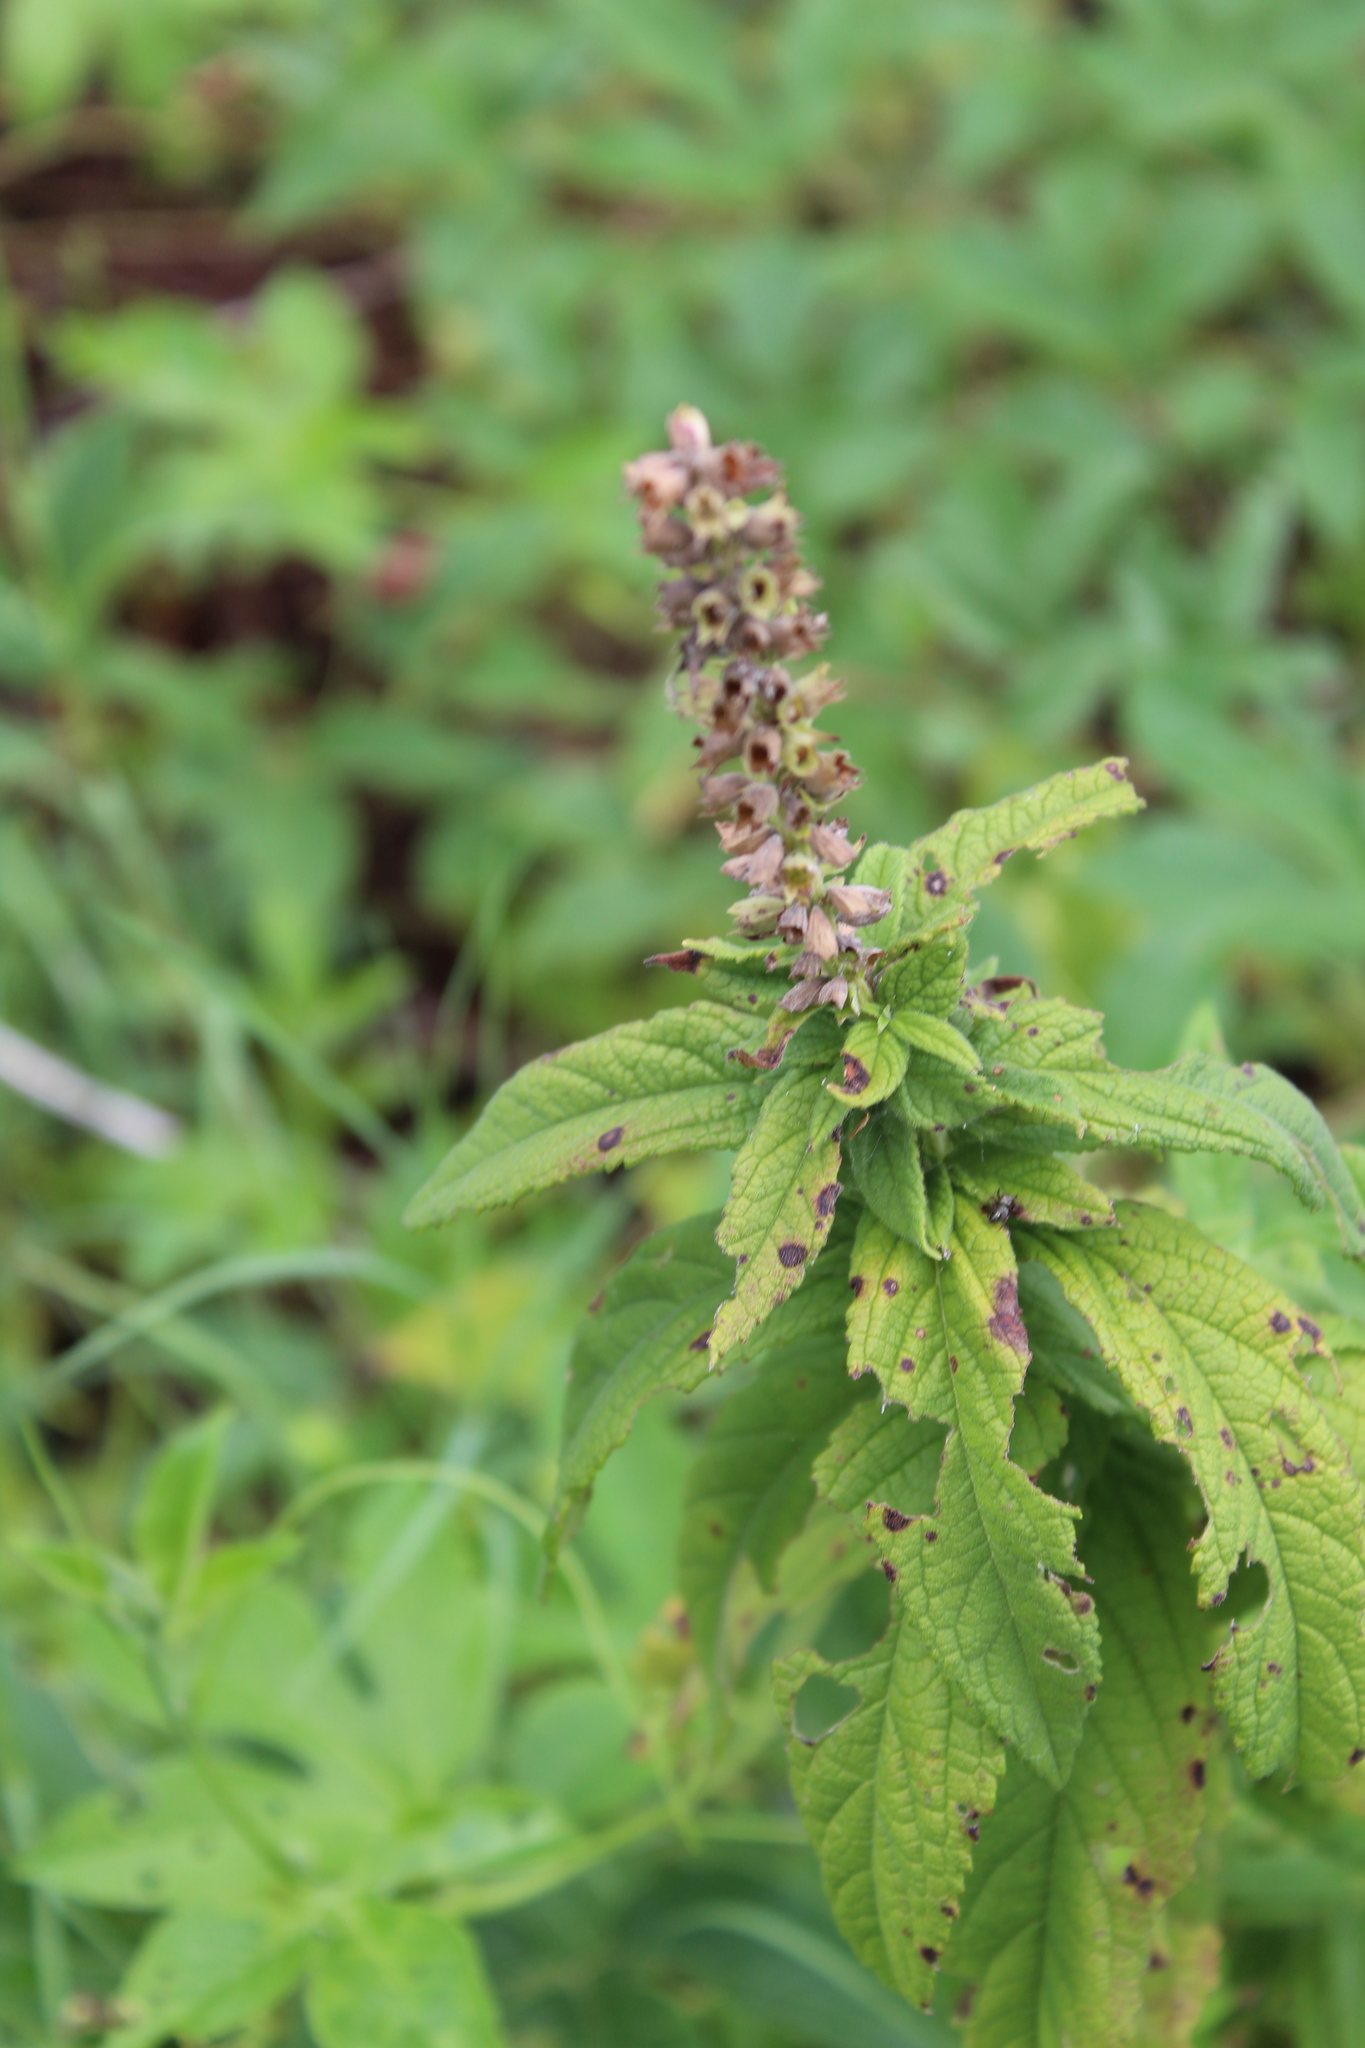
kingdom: Plantae
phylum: Tracheophyta
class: Magnoliopsida
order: Lamiales
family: Lamiaceae
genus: Teucrium
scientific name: Teucrium canadense
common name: American germander
